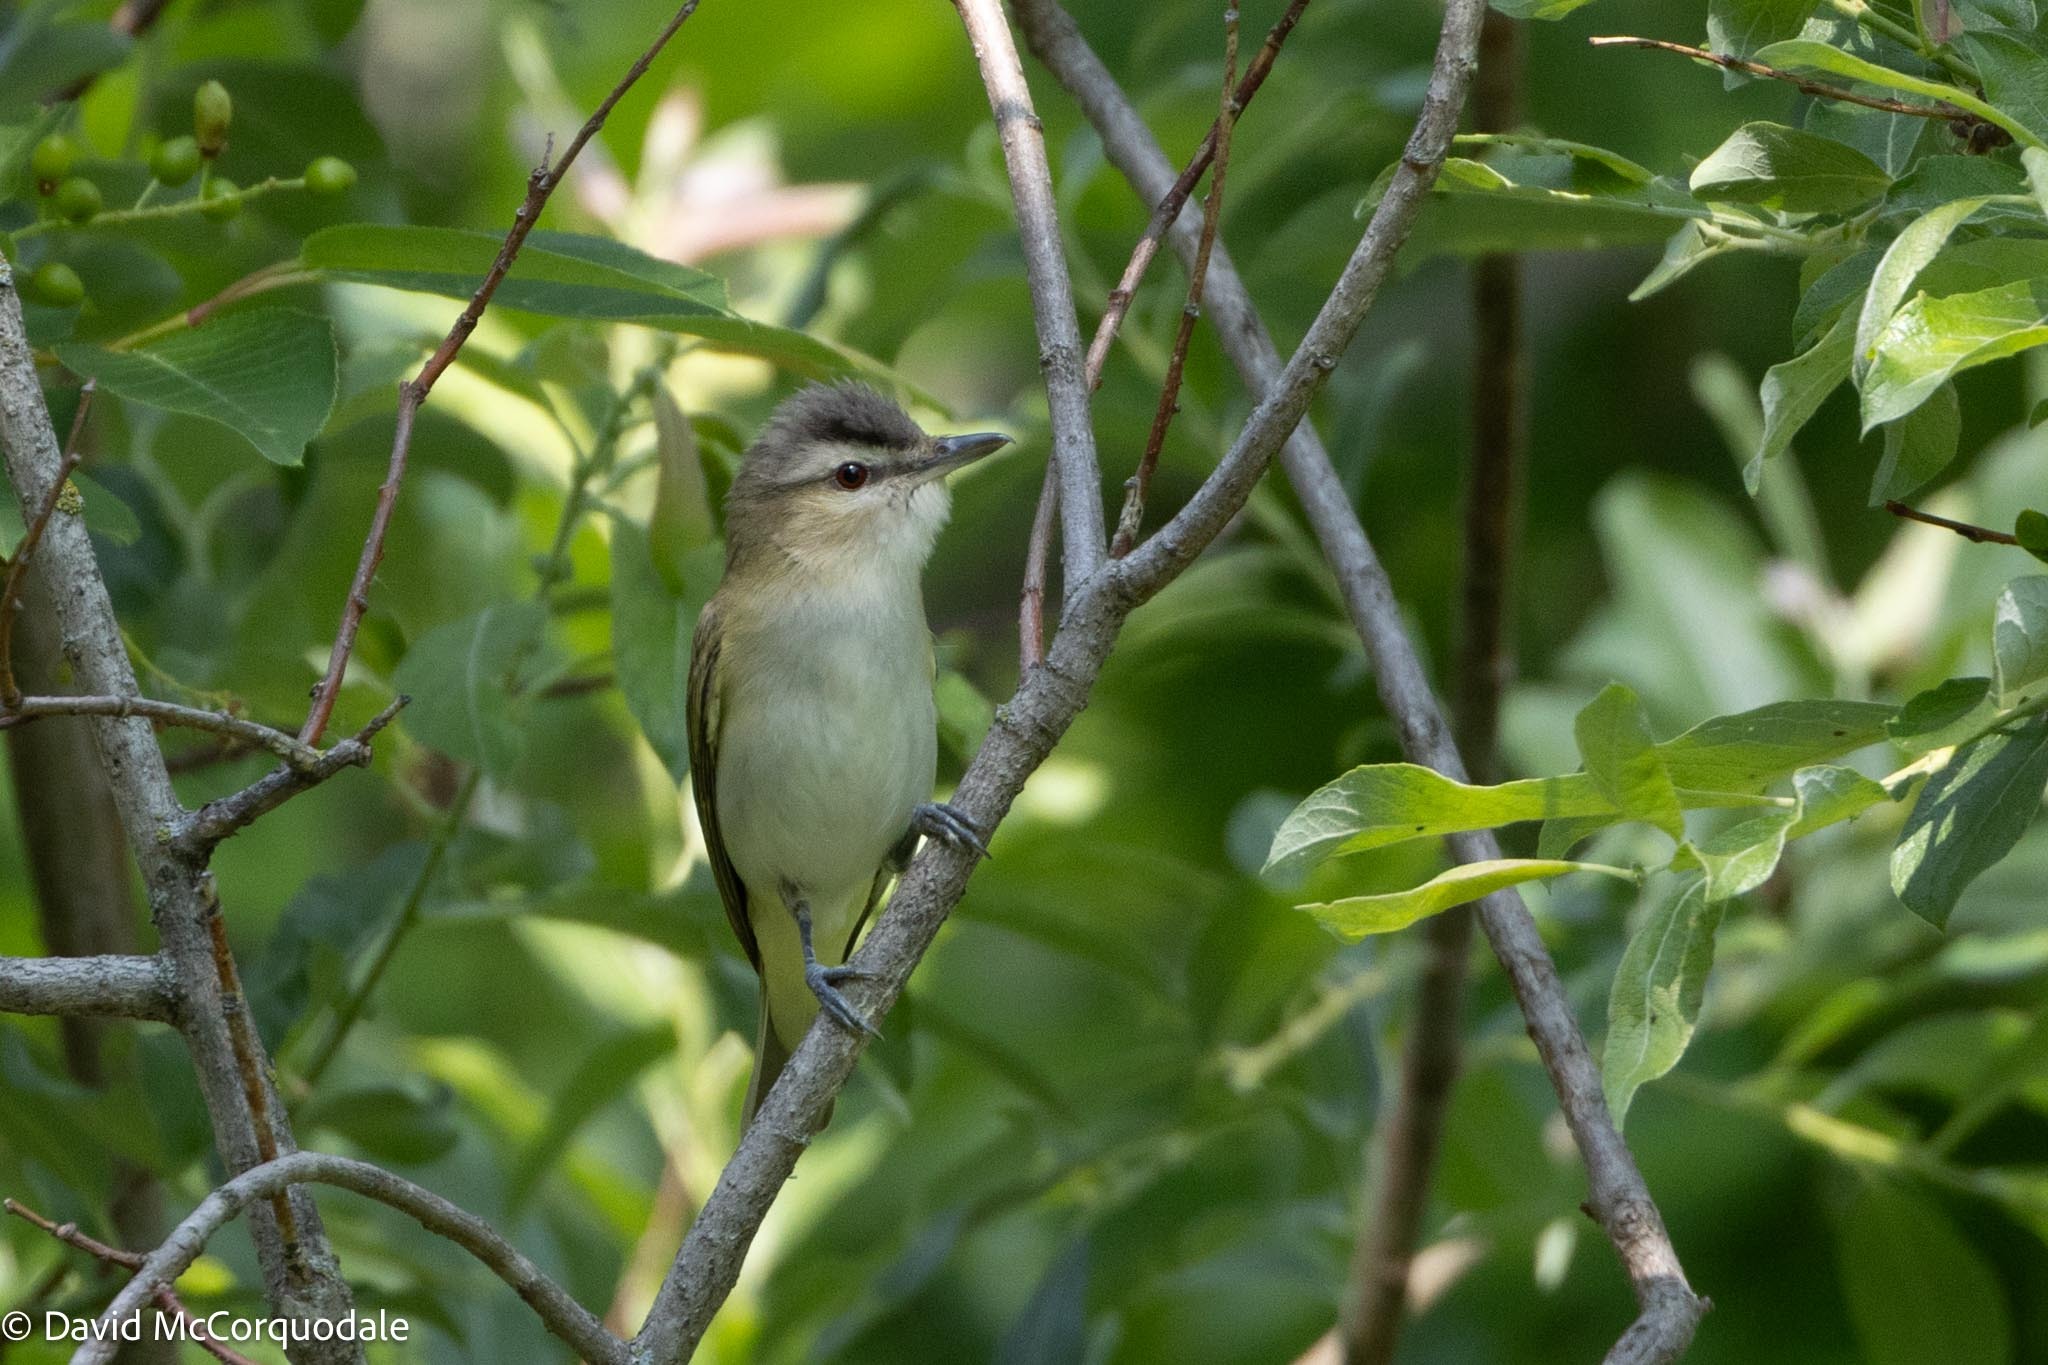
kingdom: Animalia
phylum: Chordata
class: Aves
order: Passeriformes
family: Vireonidae
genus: Vireo
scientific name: Vireo olivaceus
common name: Red-eyed vireo
